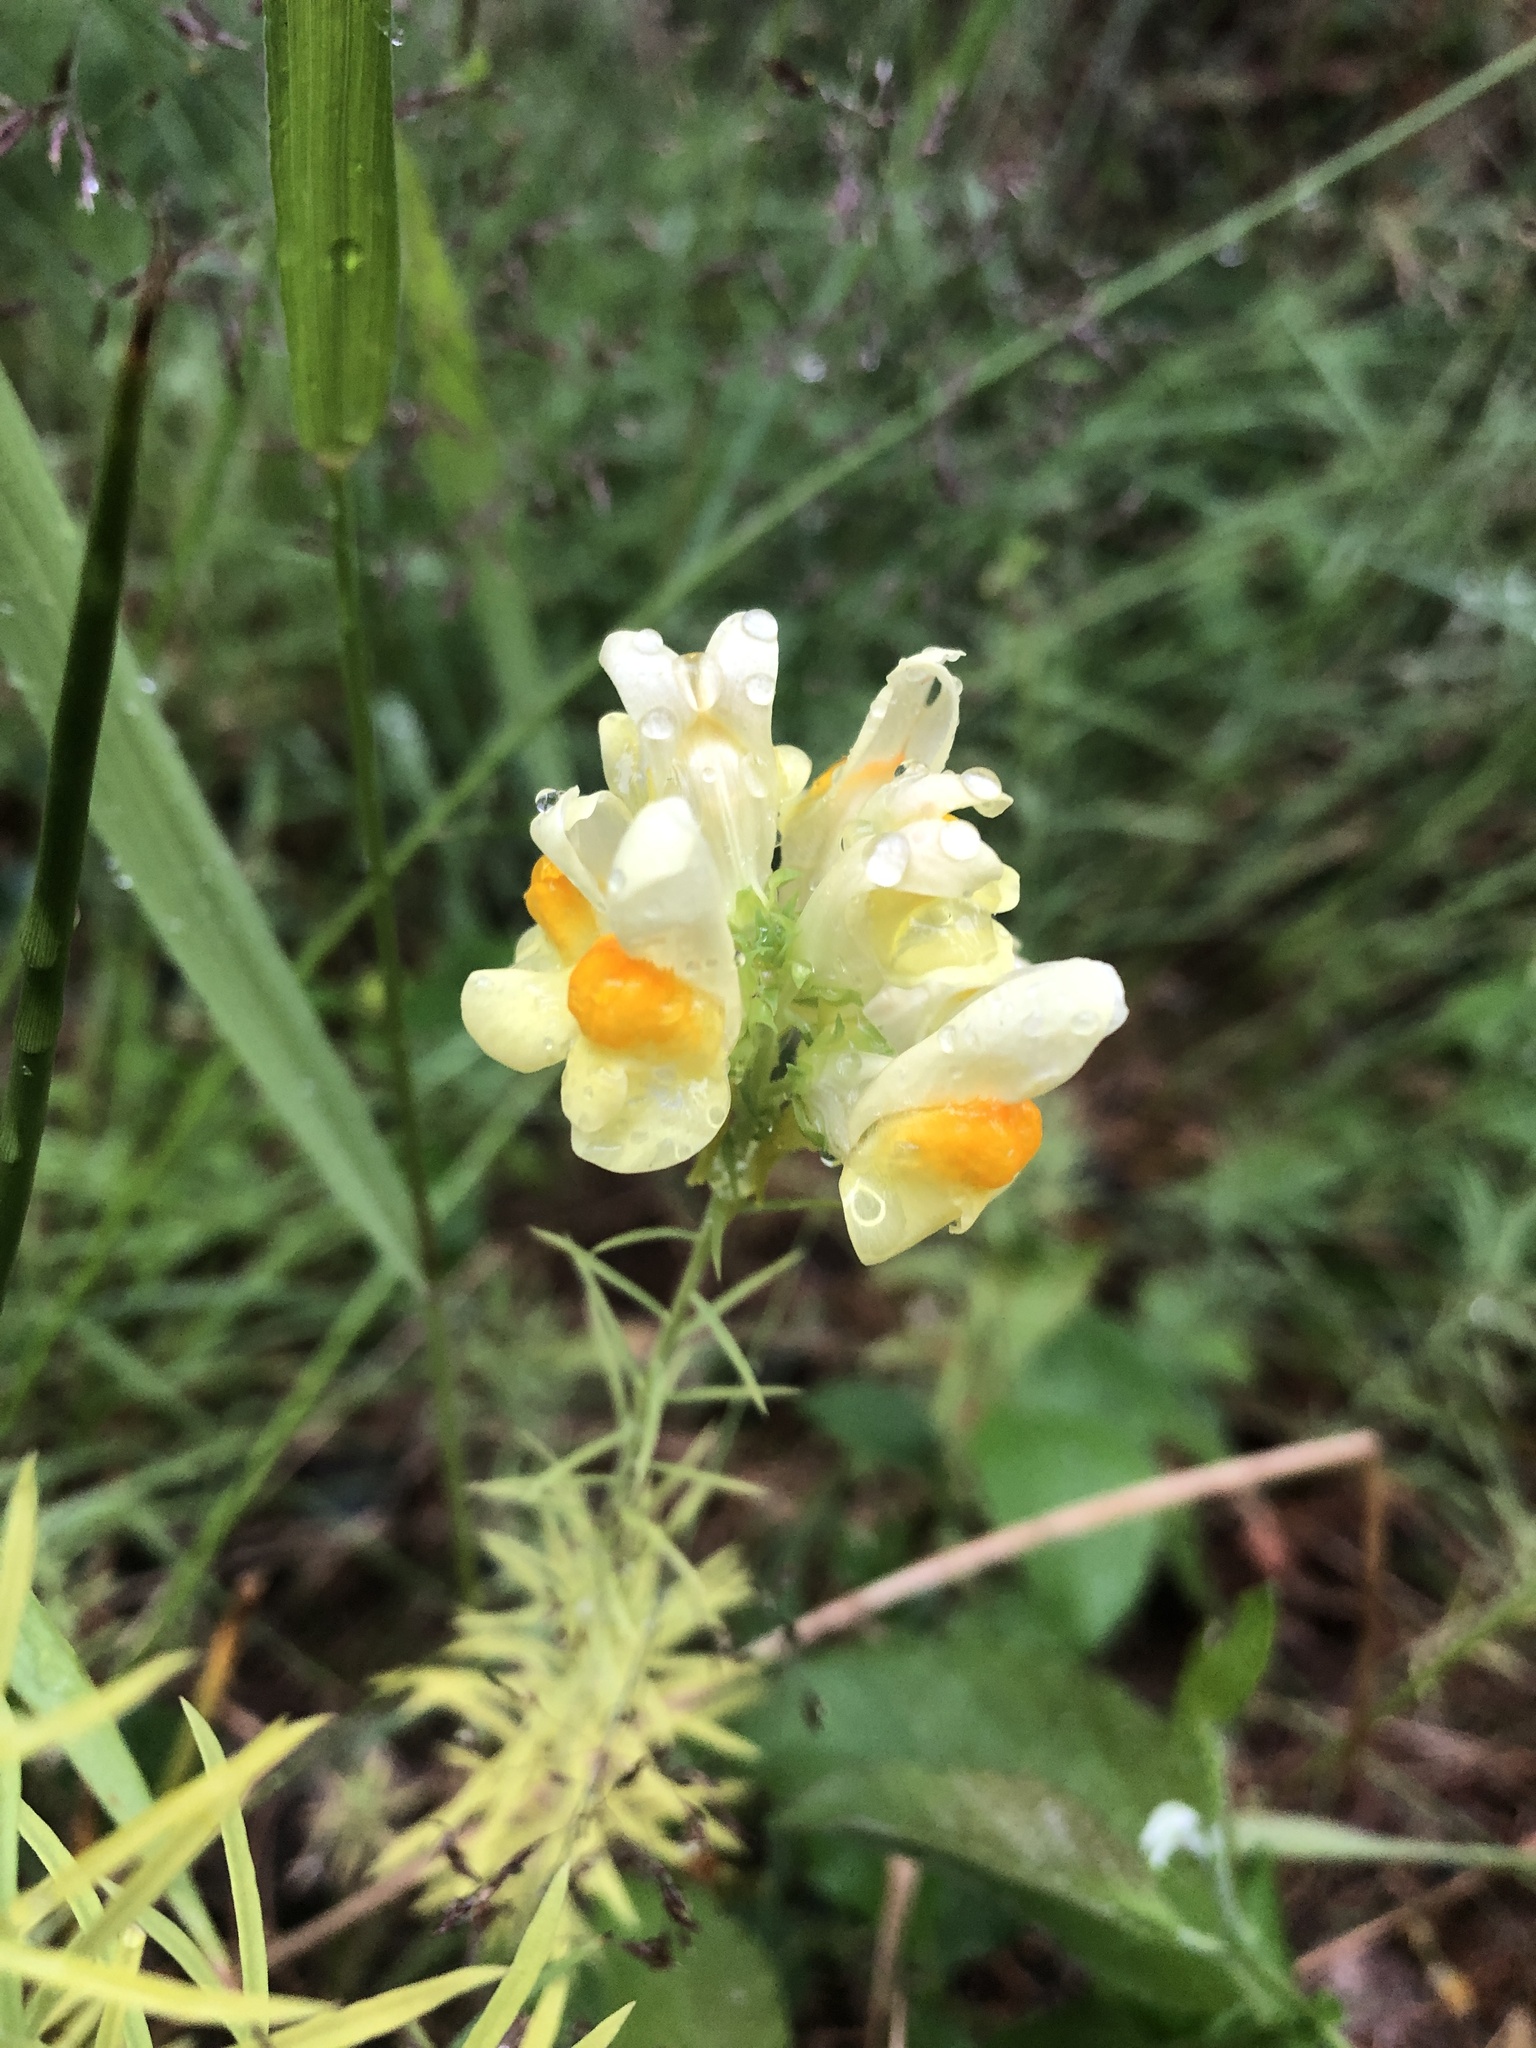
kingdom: Plantae
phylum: Tracheophyta
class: Magnoliopsida
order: Lamiales
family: Plantaginaceae
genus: Linaria
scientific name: Linaria vulgaris
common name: Butter and eggs
